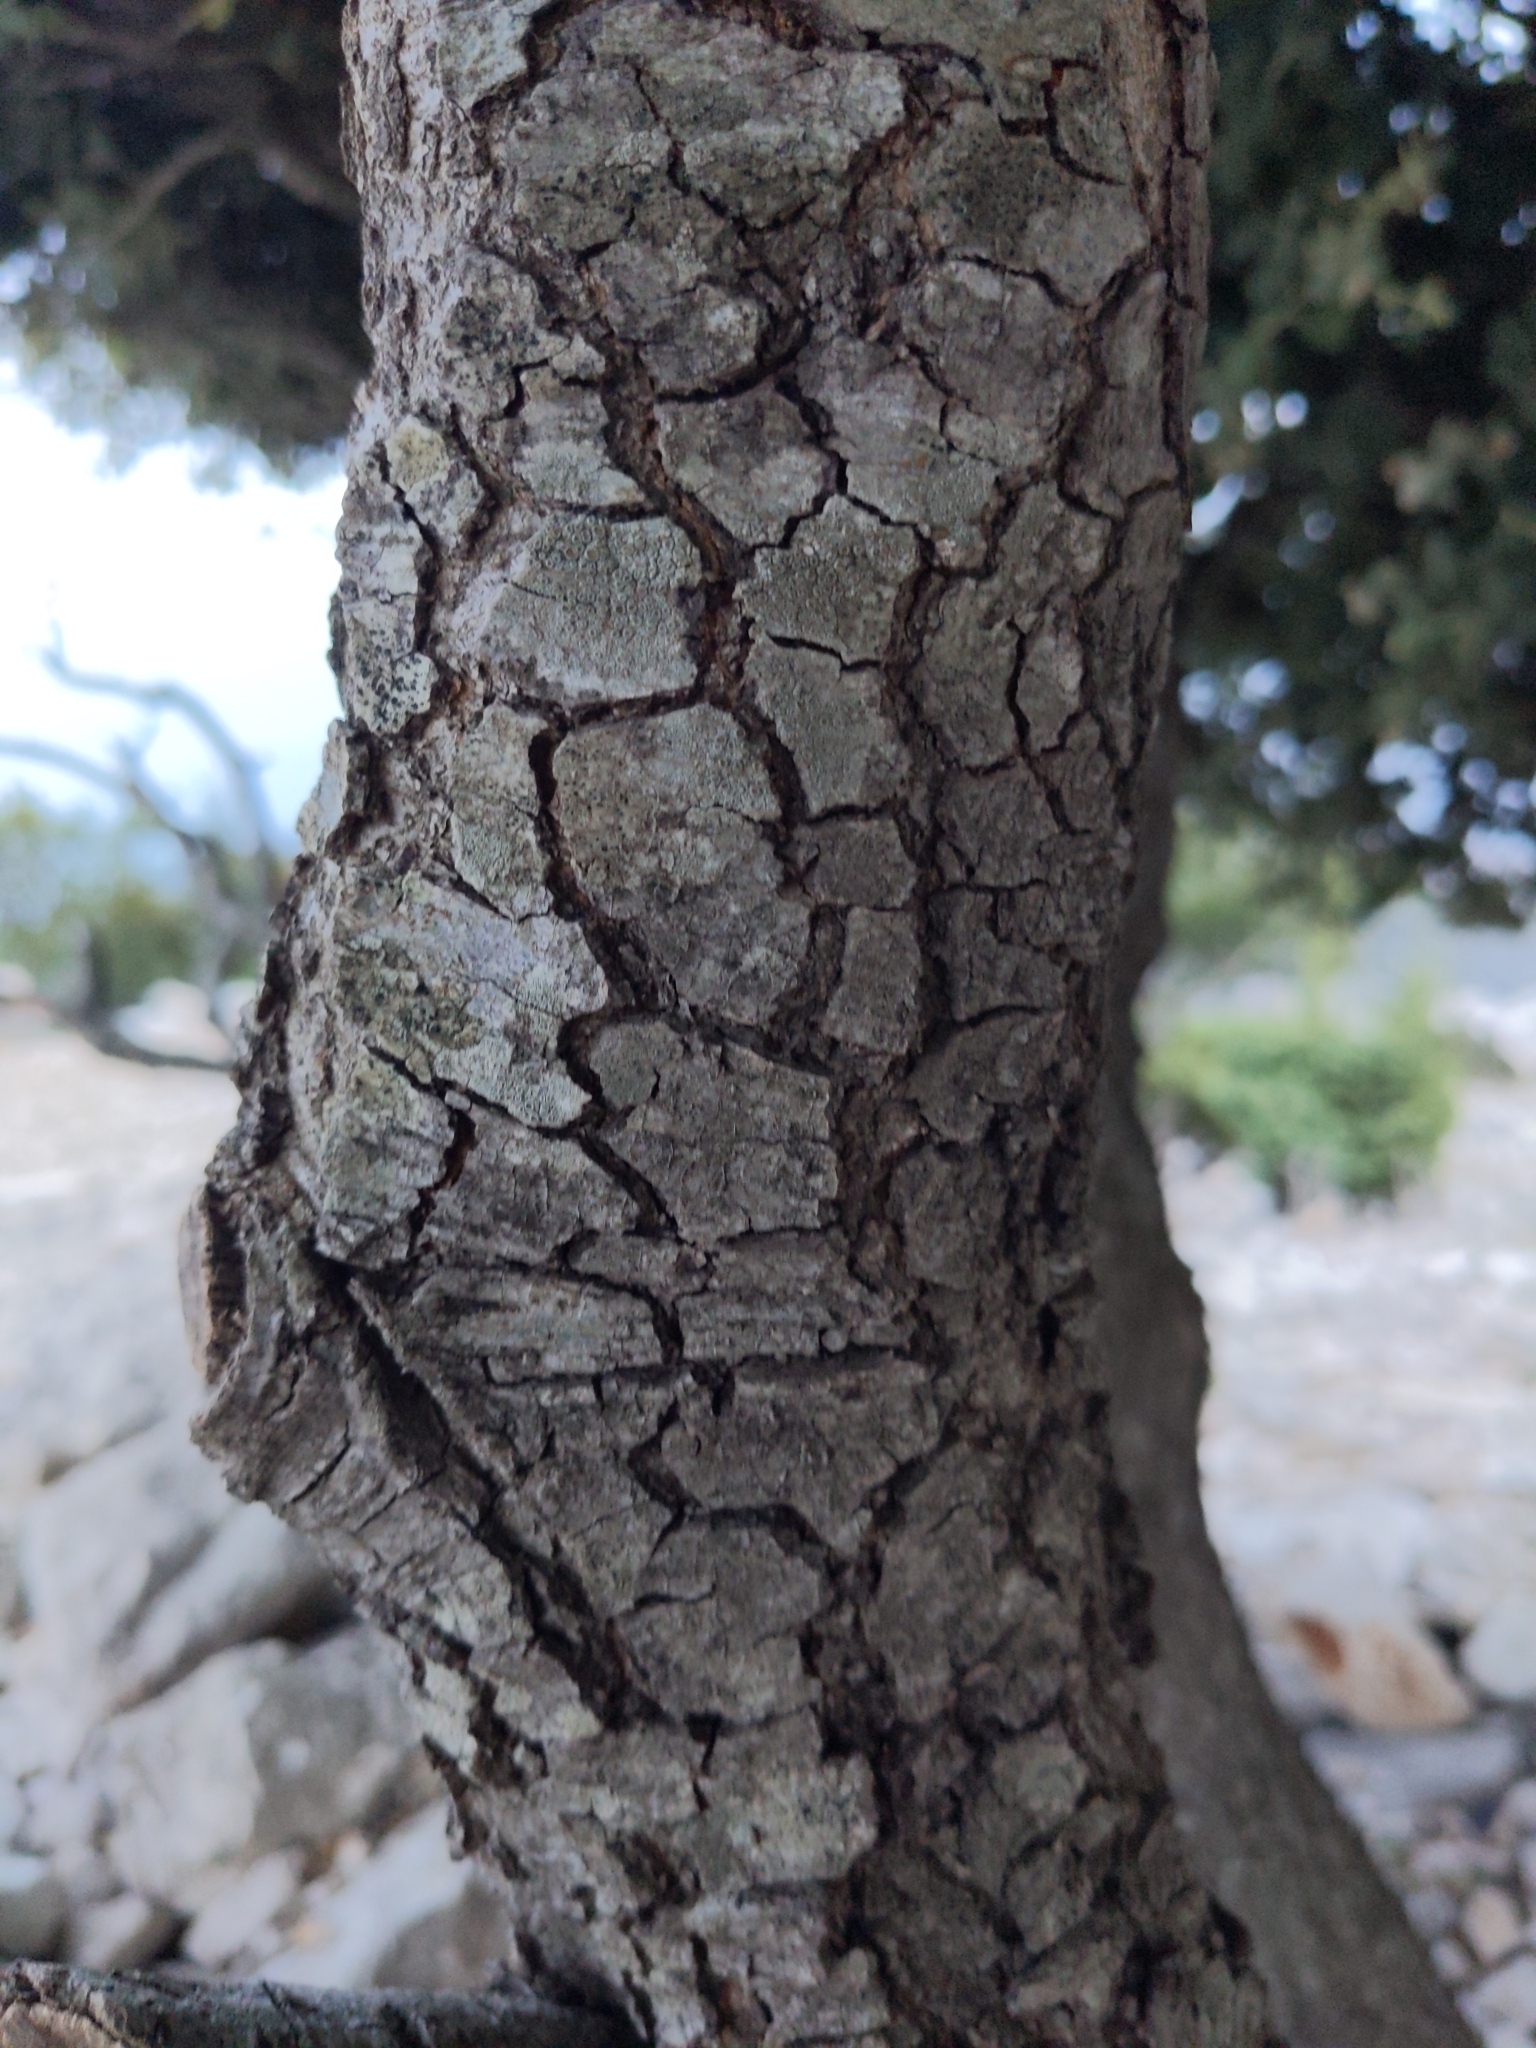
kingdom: Plantae
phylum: Tracheophyta
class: Magnoliopsida
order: Fagales
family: Fagaceae
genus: Quercus
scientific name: Quercus ilex
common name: Evergreen oak
